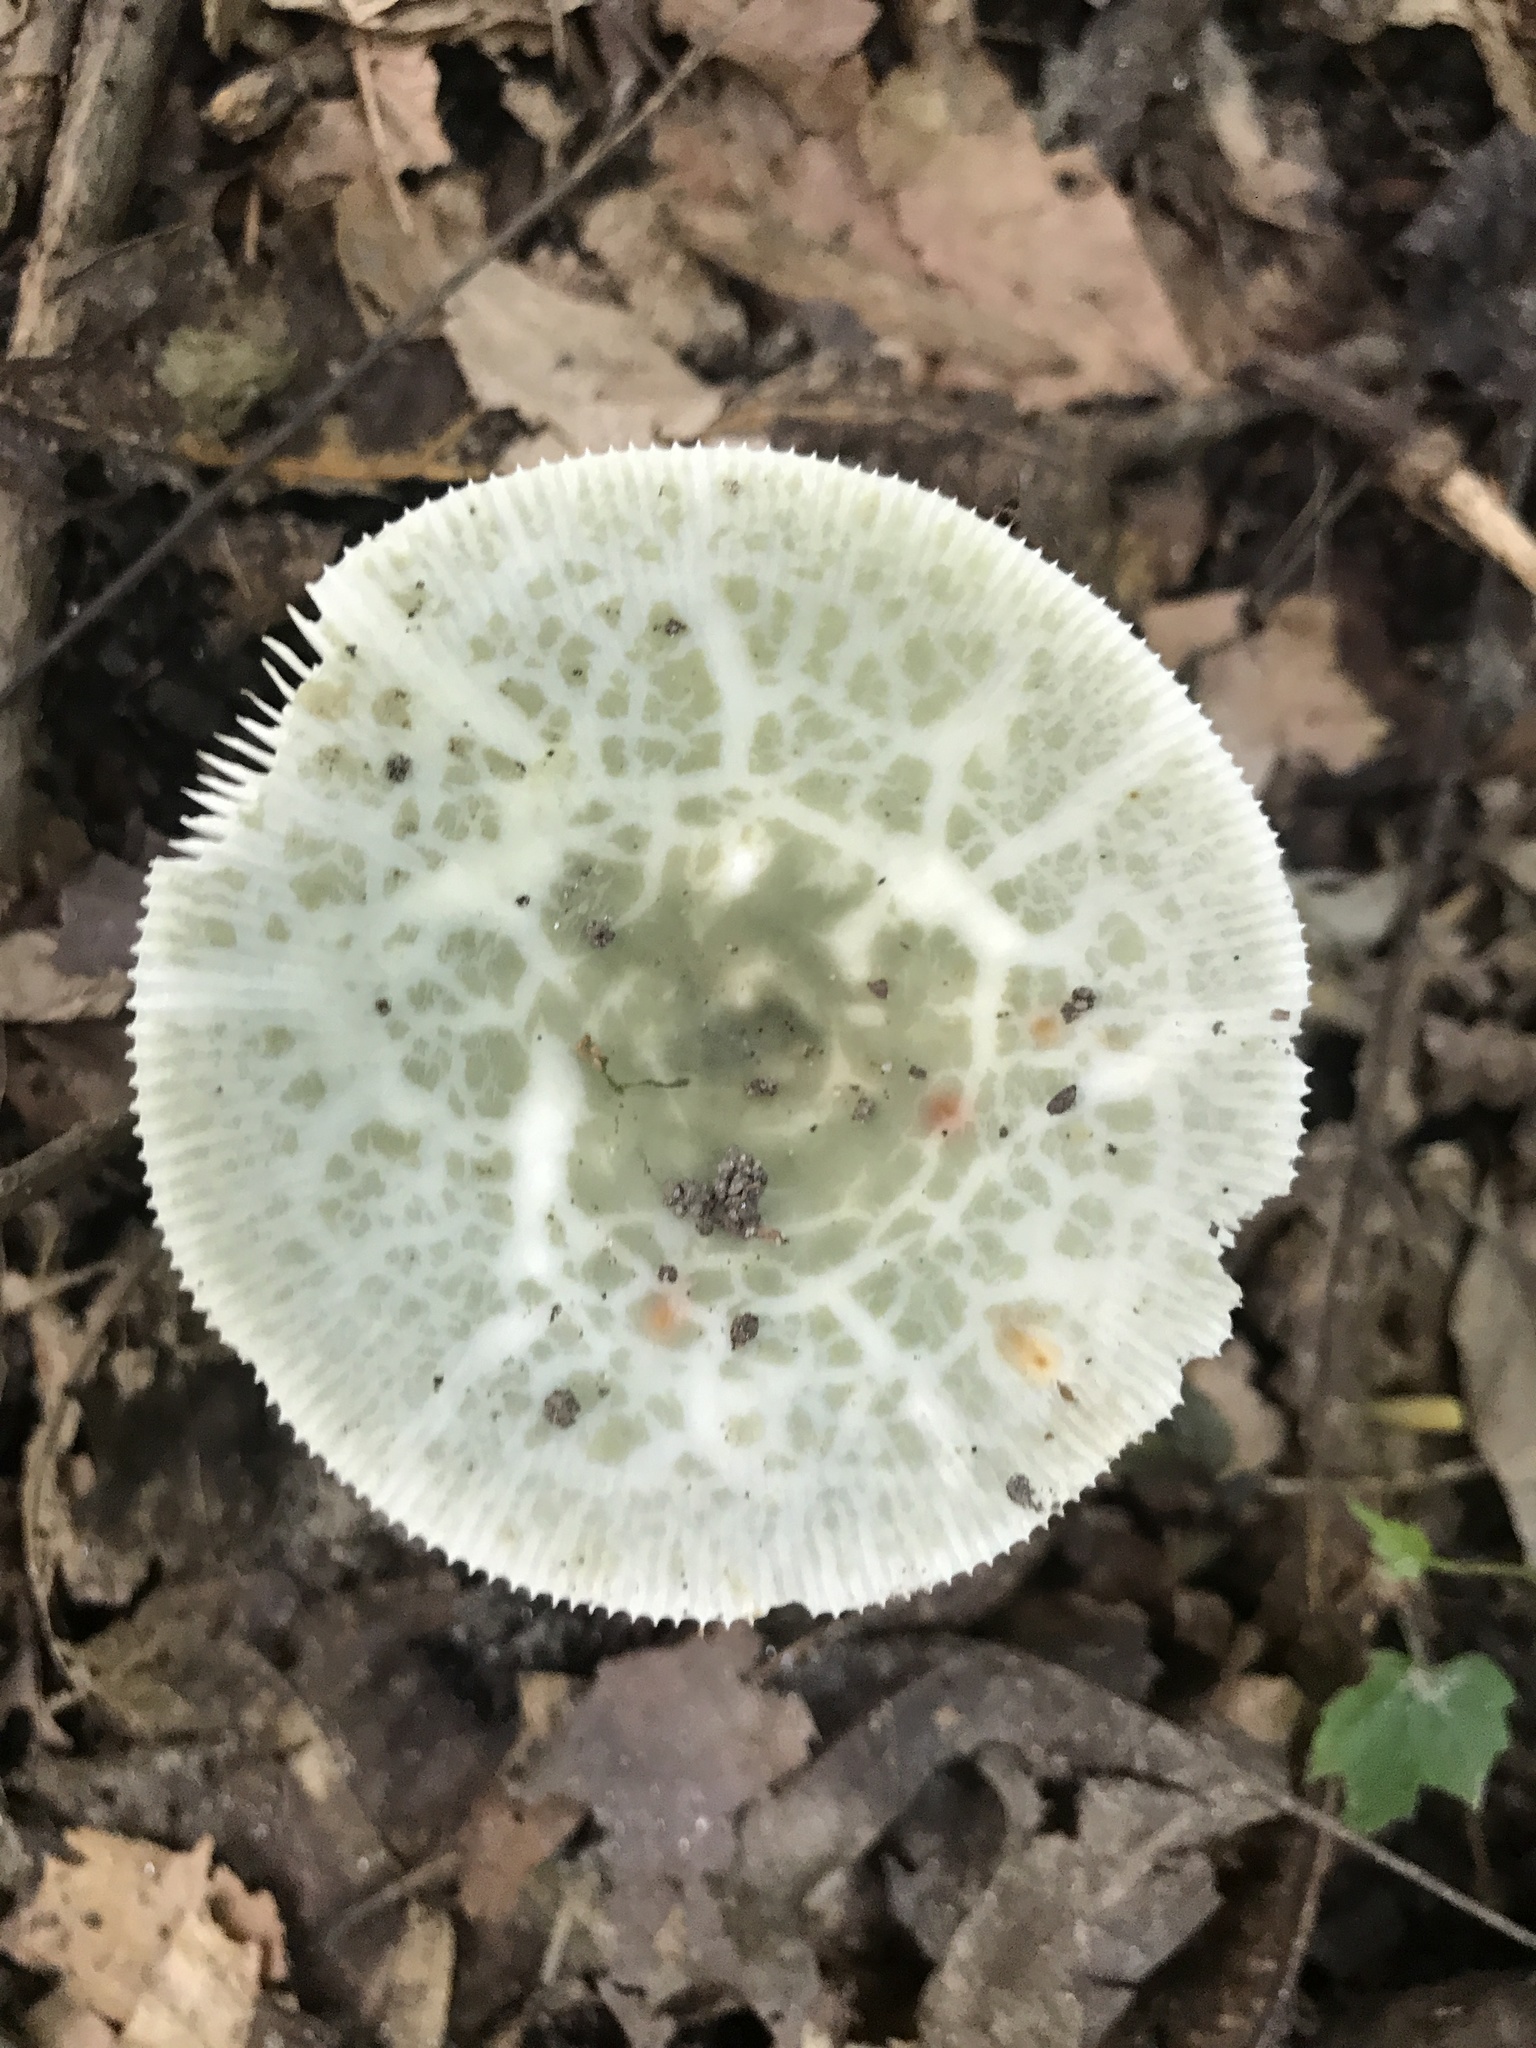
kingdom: Fungi
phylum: Basidiomycota
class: Agaricomycetes
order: Russulales
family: Russulaceae
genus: Russula
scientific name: Russula parvovirescens
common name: Blue-green cracking russula
